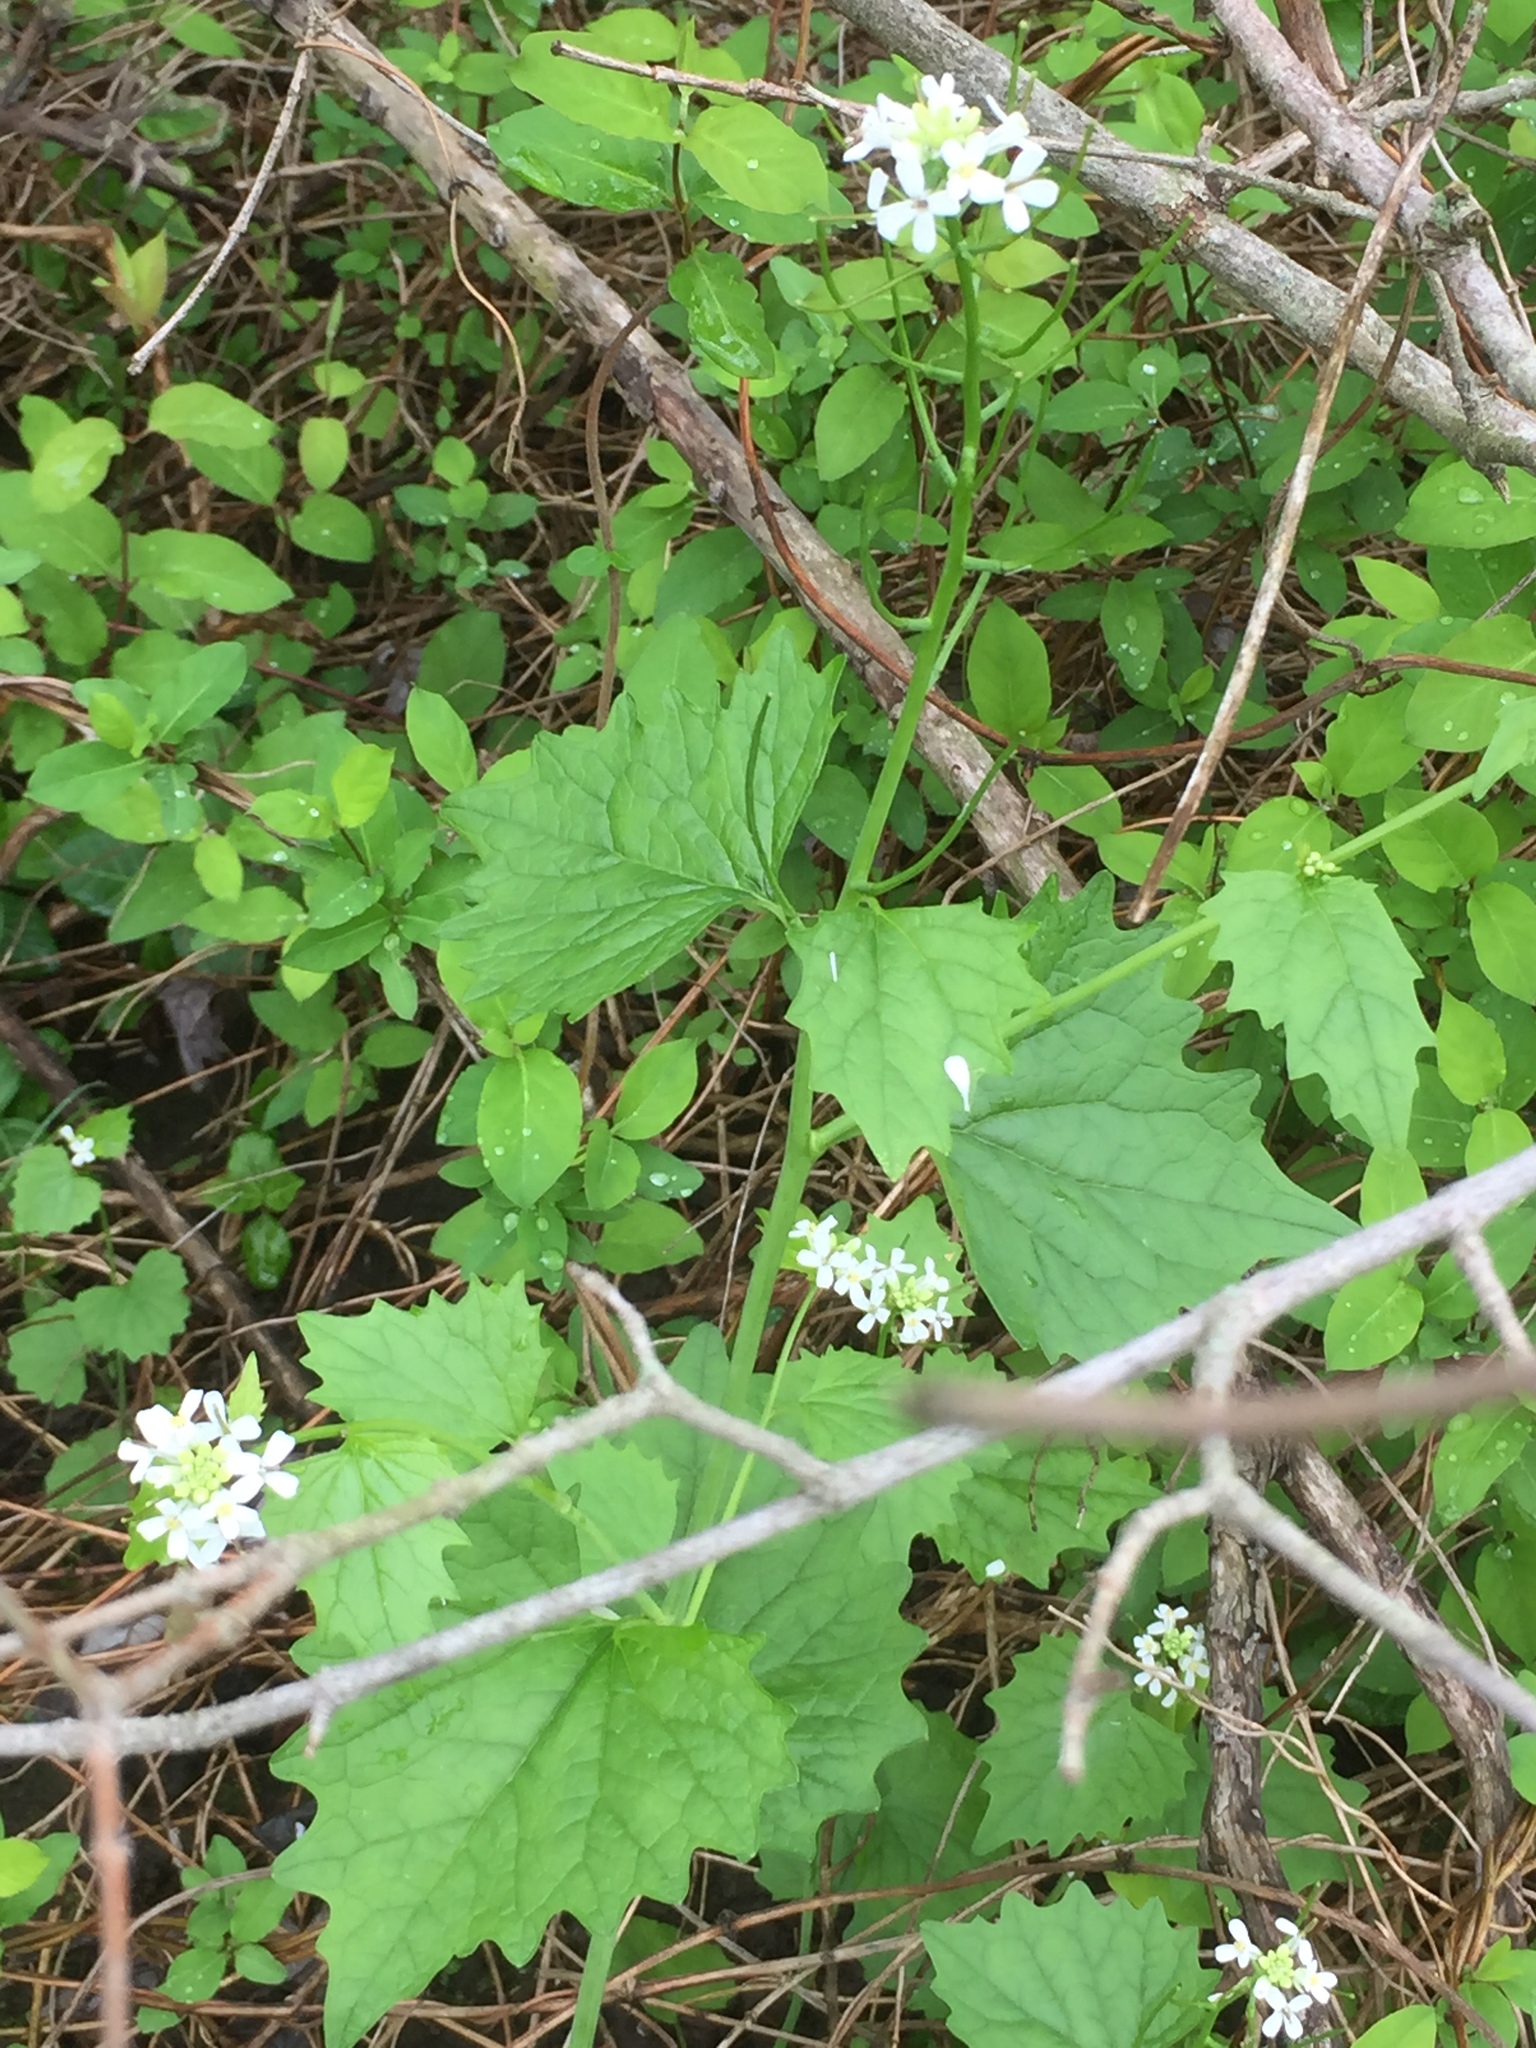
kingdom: Plantae
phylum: Tracheophyta
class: Magnoliopsida
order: Brassicales
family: Brassicaceae
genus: Alliaria
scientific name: Alliaria petiolata
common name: Garlic mustard
